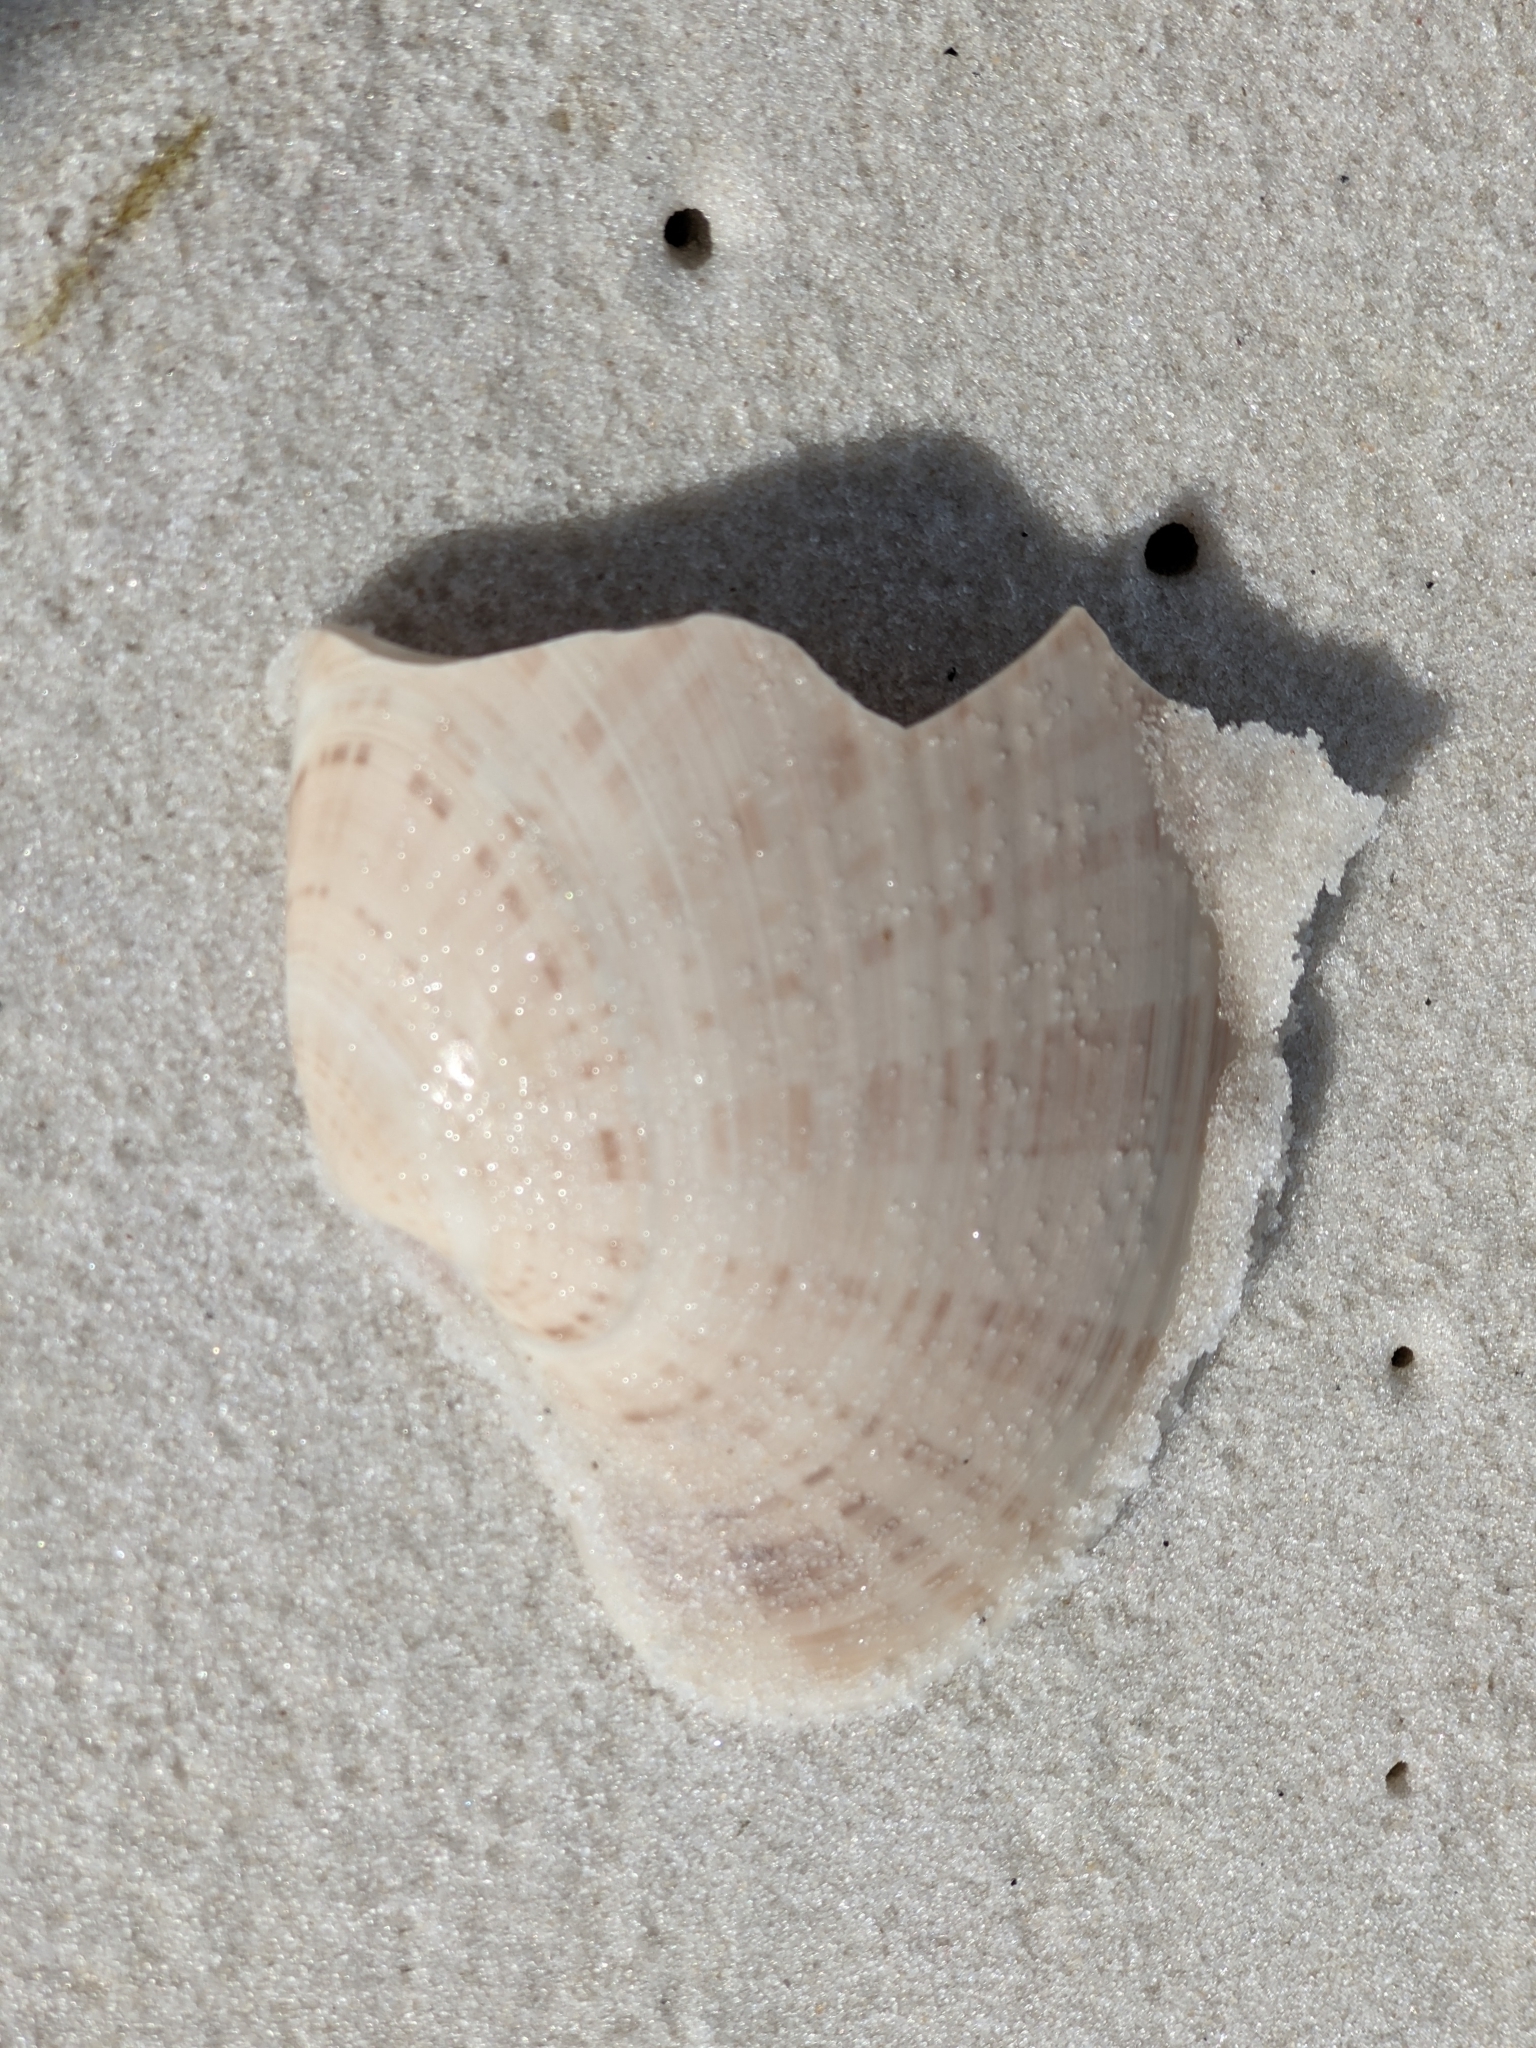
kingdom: Animalia
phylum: Mollusca
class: Bivalvia
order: Venerida
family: Veneridae
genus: Macrocallista
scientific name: Macrocallista nimbosa
